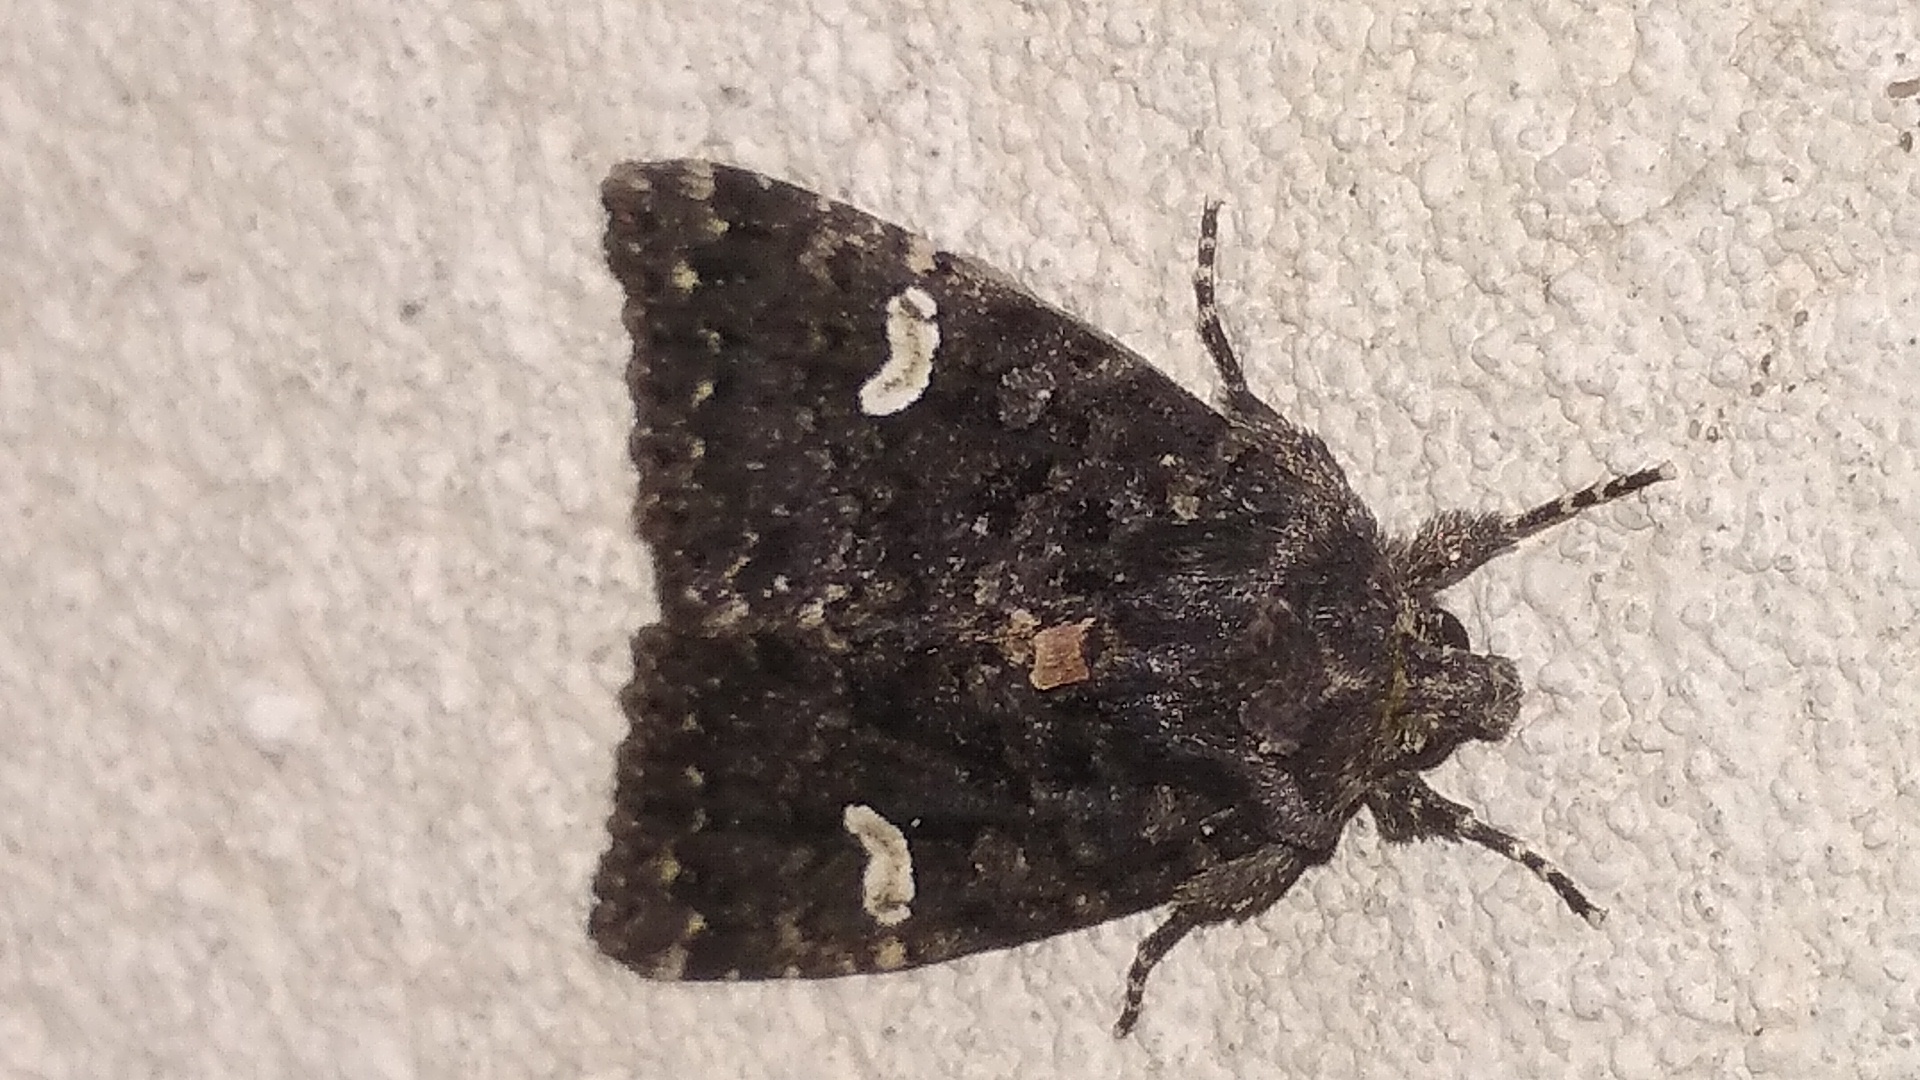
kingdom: Animalia
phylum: Arthropoda
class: Insecta
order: Lepidoptera
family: Noctuidae
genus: Melanchra
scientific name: Melanchra persicariae
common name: Dot moth
